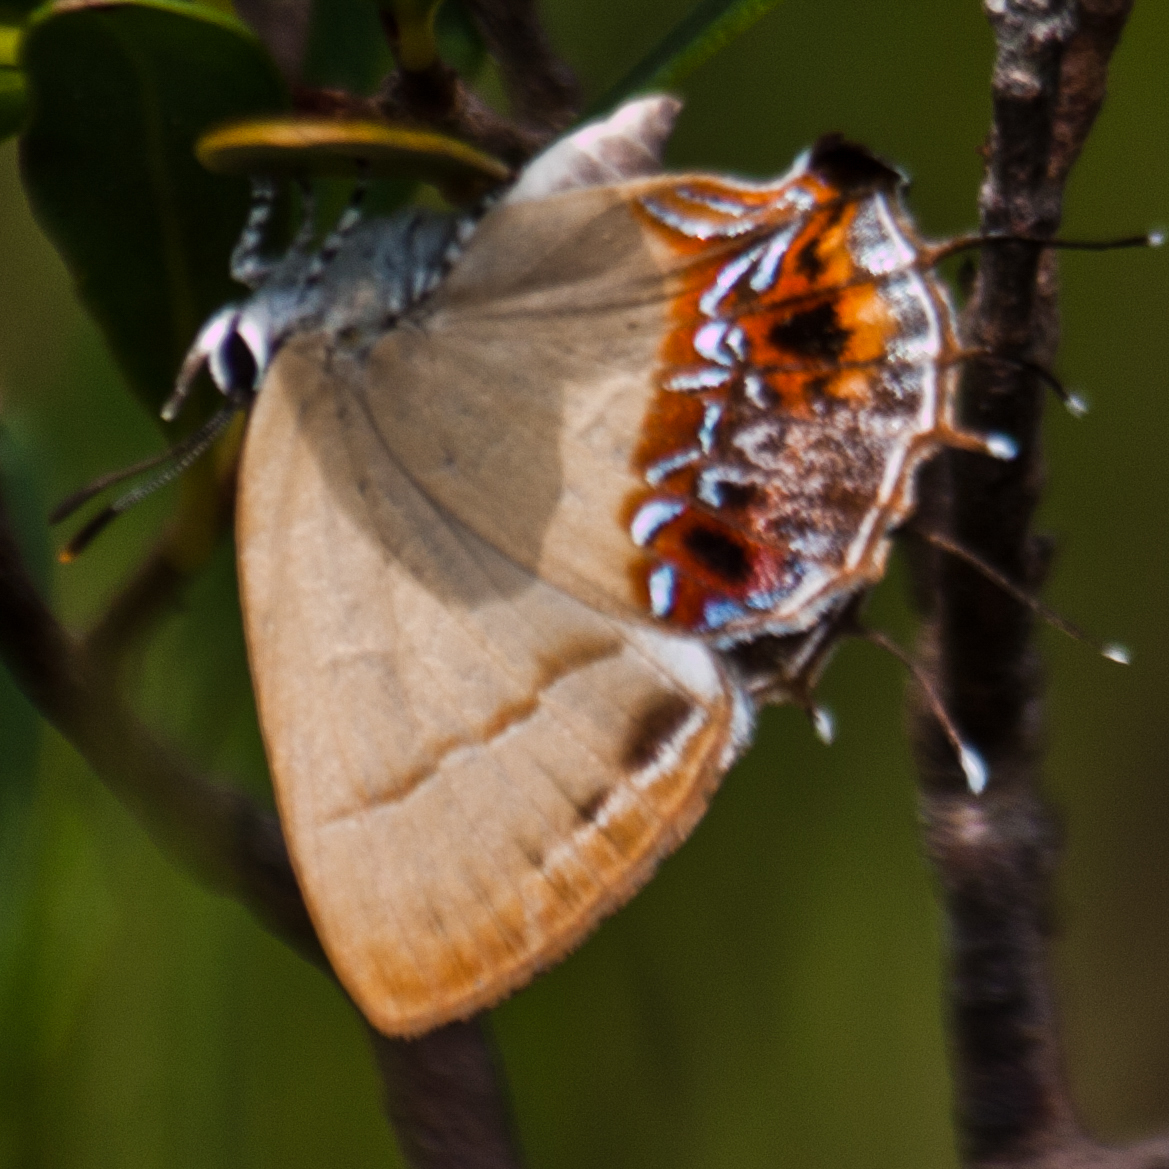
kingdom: Animalia
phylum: Arthropoda
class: Insecta
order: Lepidoptera
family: Lycaenidae
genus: Semanga
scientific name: Semanga superba
